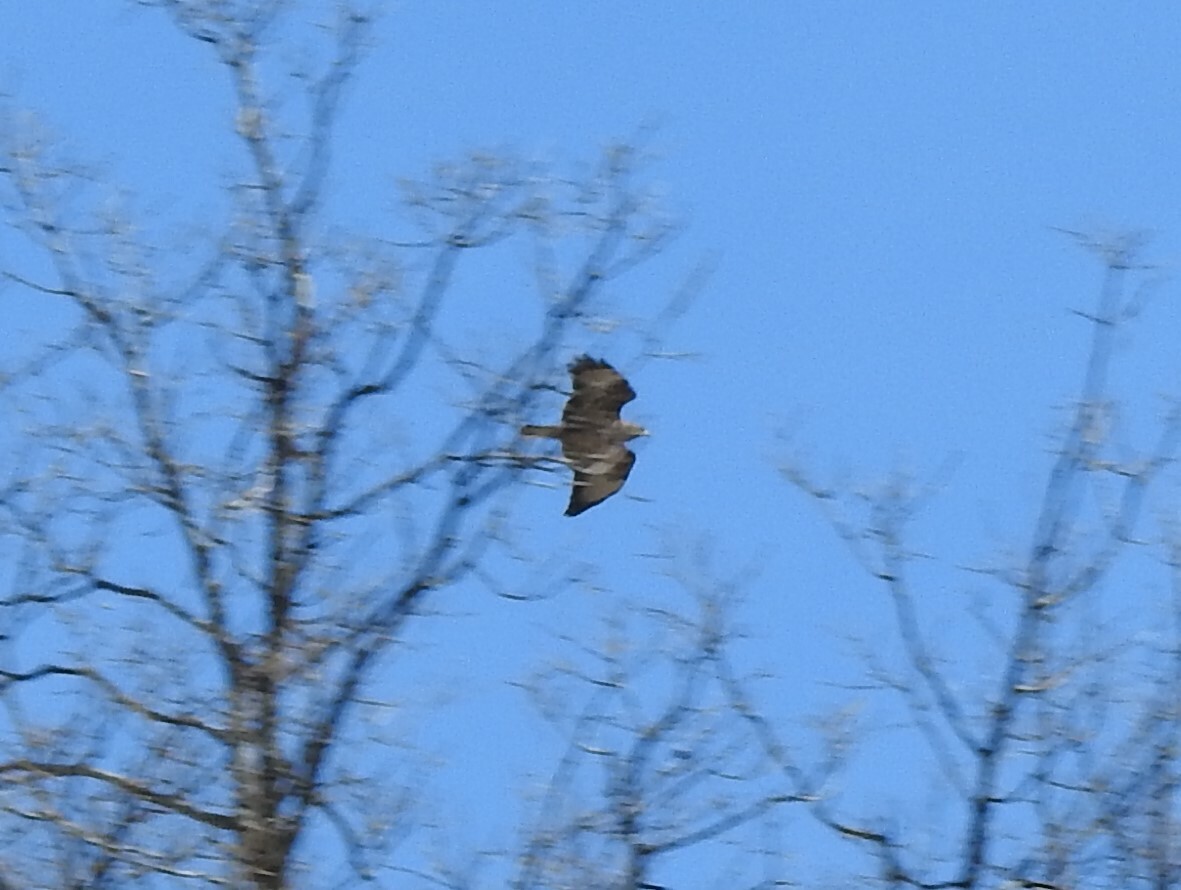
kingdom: Animalia
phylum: Chordata
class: Aves
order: Accipitriformes
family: Accipitridae
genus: Buteo
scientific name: Buteo buteo
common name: Common buzzard
